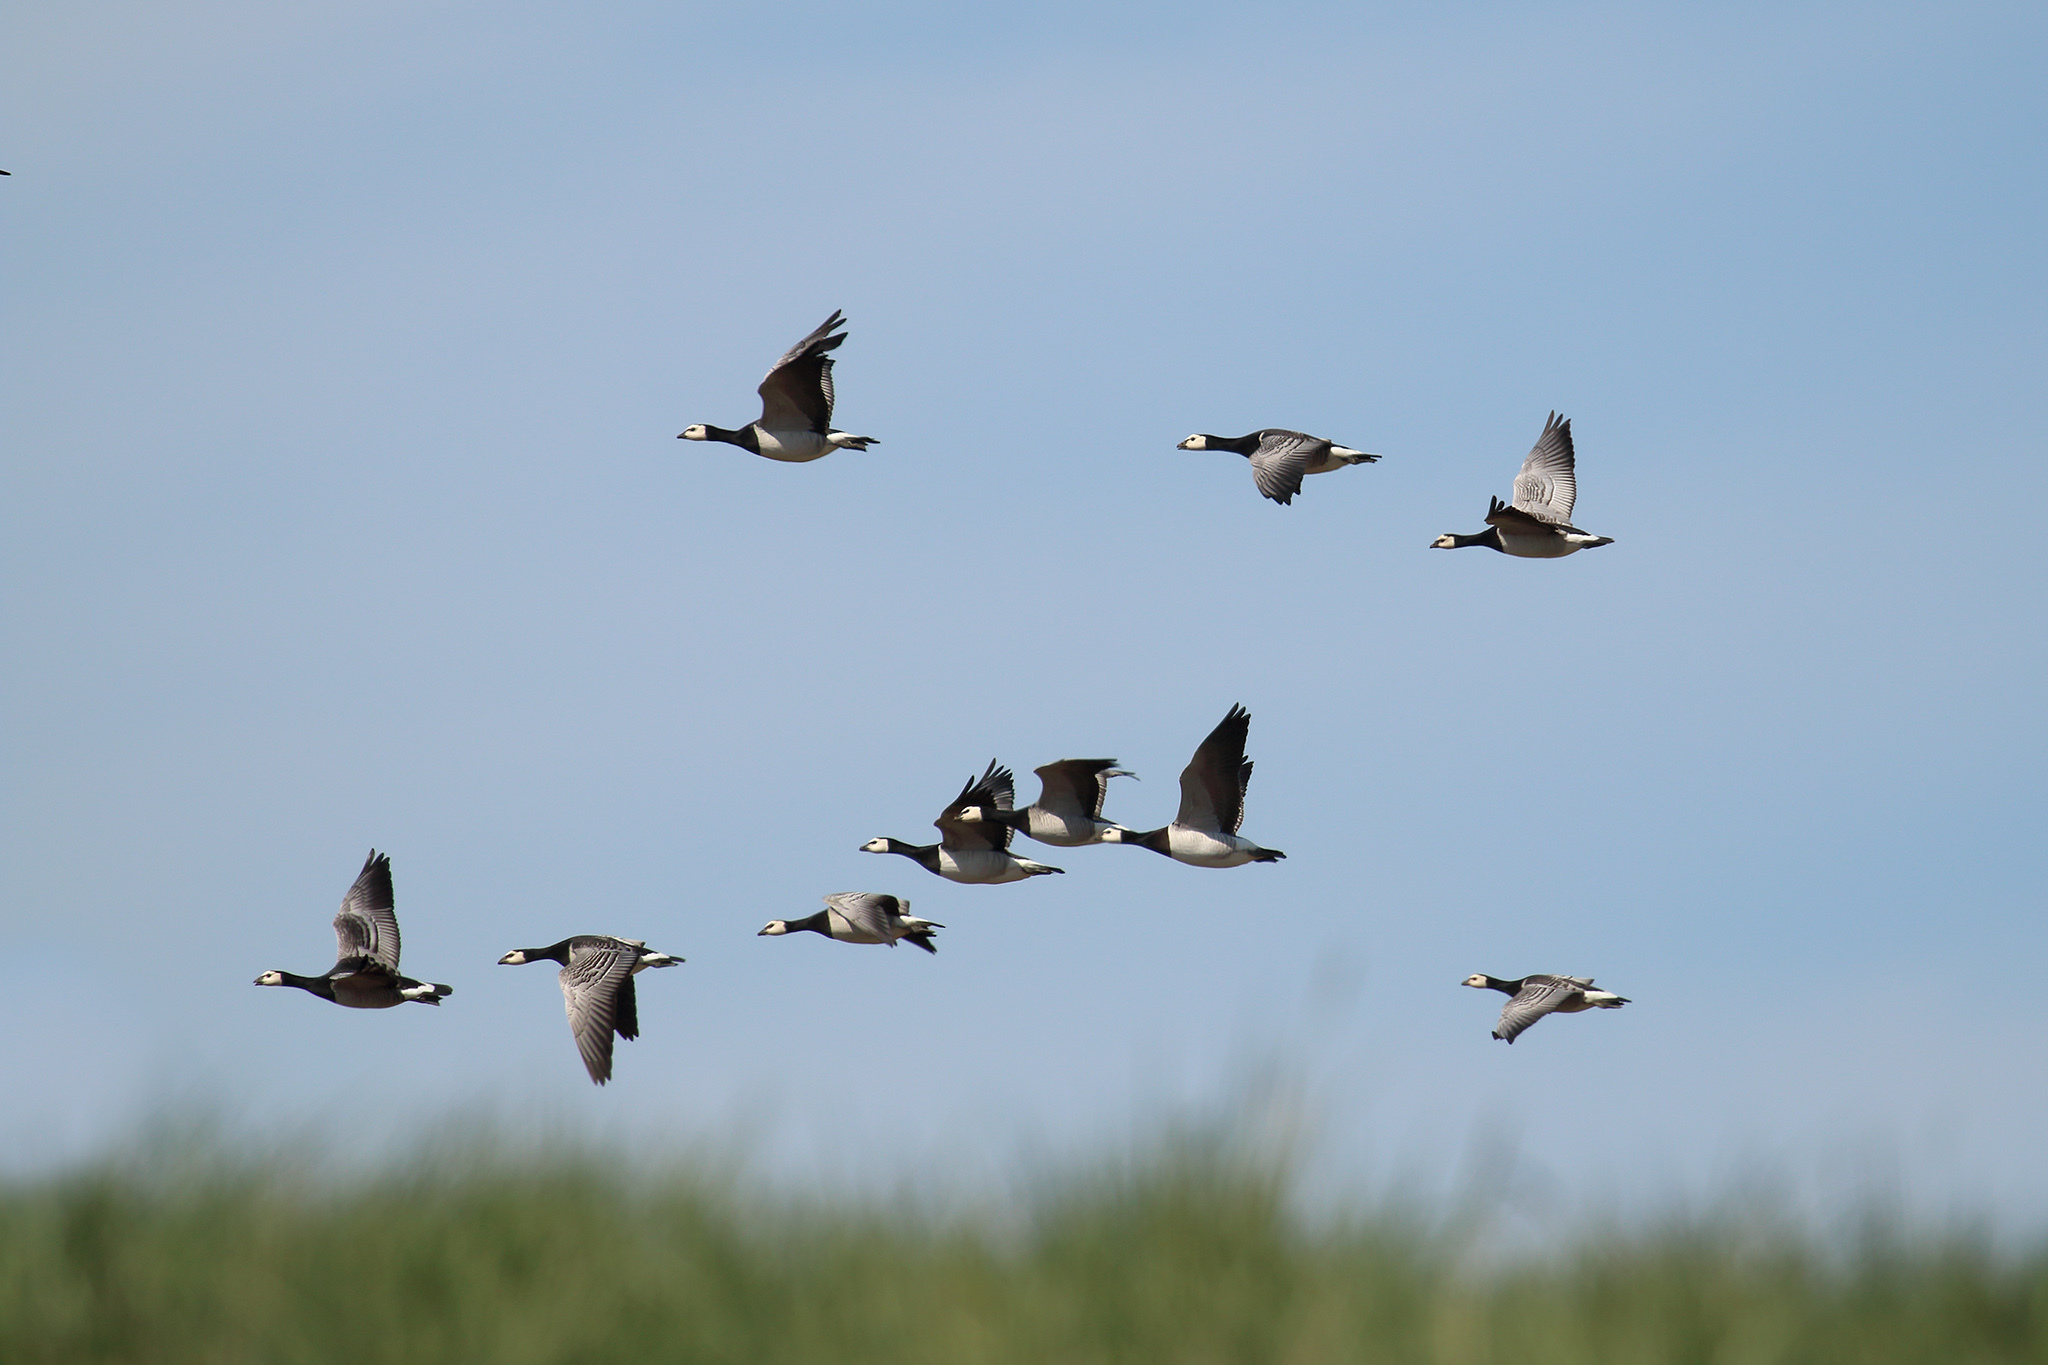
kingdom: Animalia
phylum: Chordata
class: Aves
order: Anseriformes
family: Anatidae
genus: Branta
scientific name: Branta leucopsis
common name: Barnacle goose
